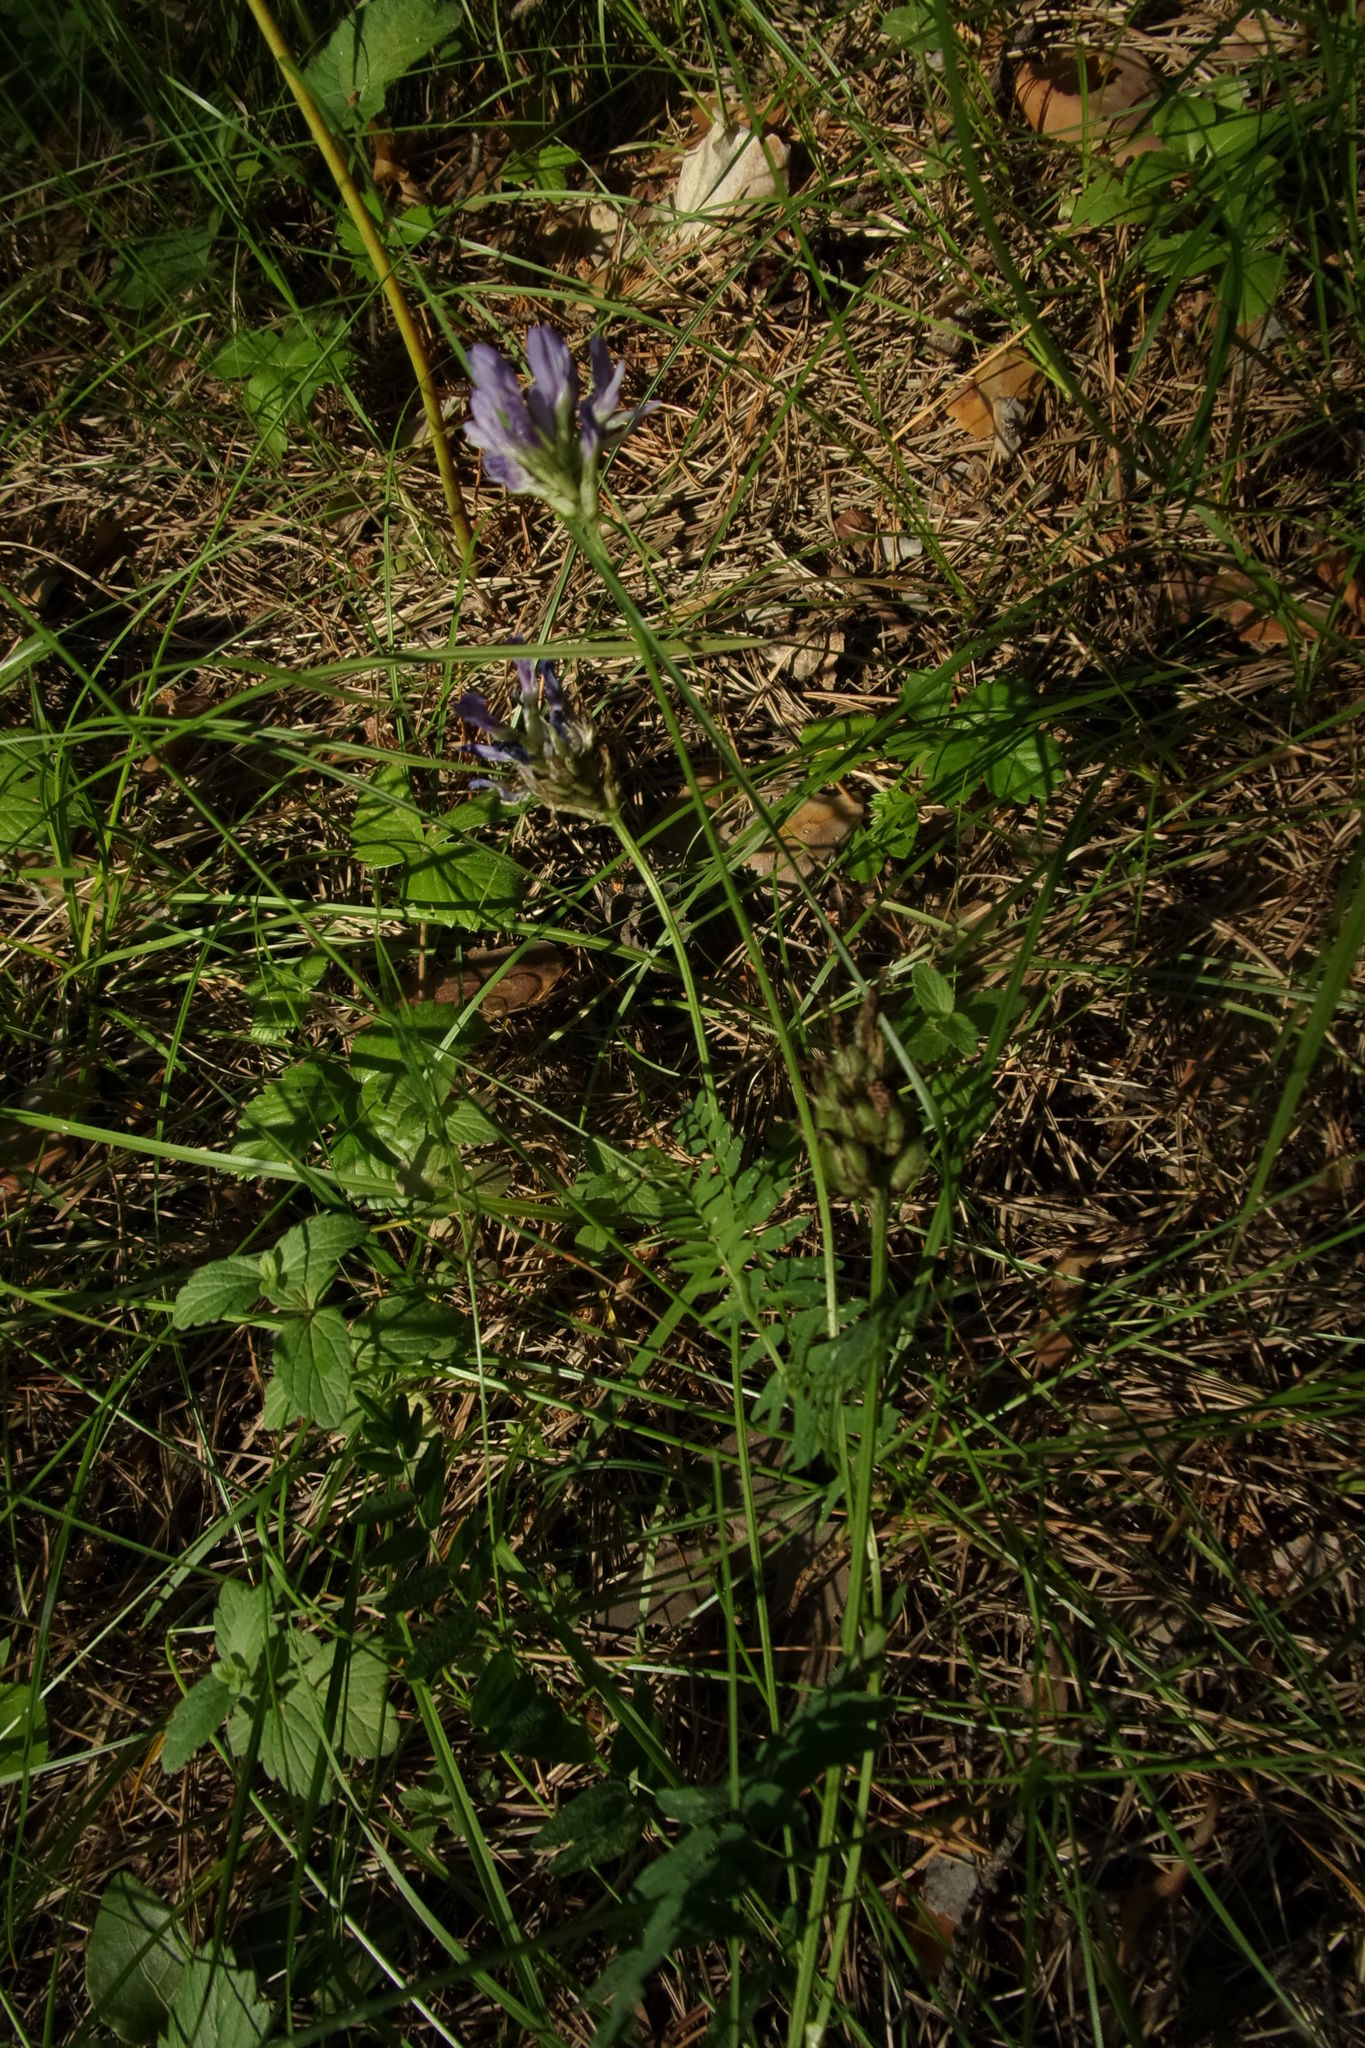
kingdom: Plantae
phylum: Tracheophyta
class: Magnoliopsida
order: Fabales
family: Fabaceae
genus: Astragalus
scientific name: Astragalus danicus
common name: Purple milk-vetch
